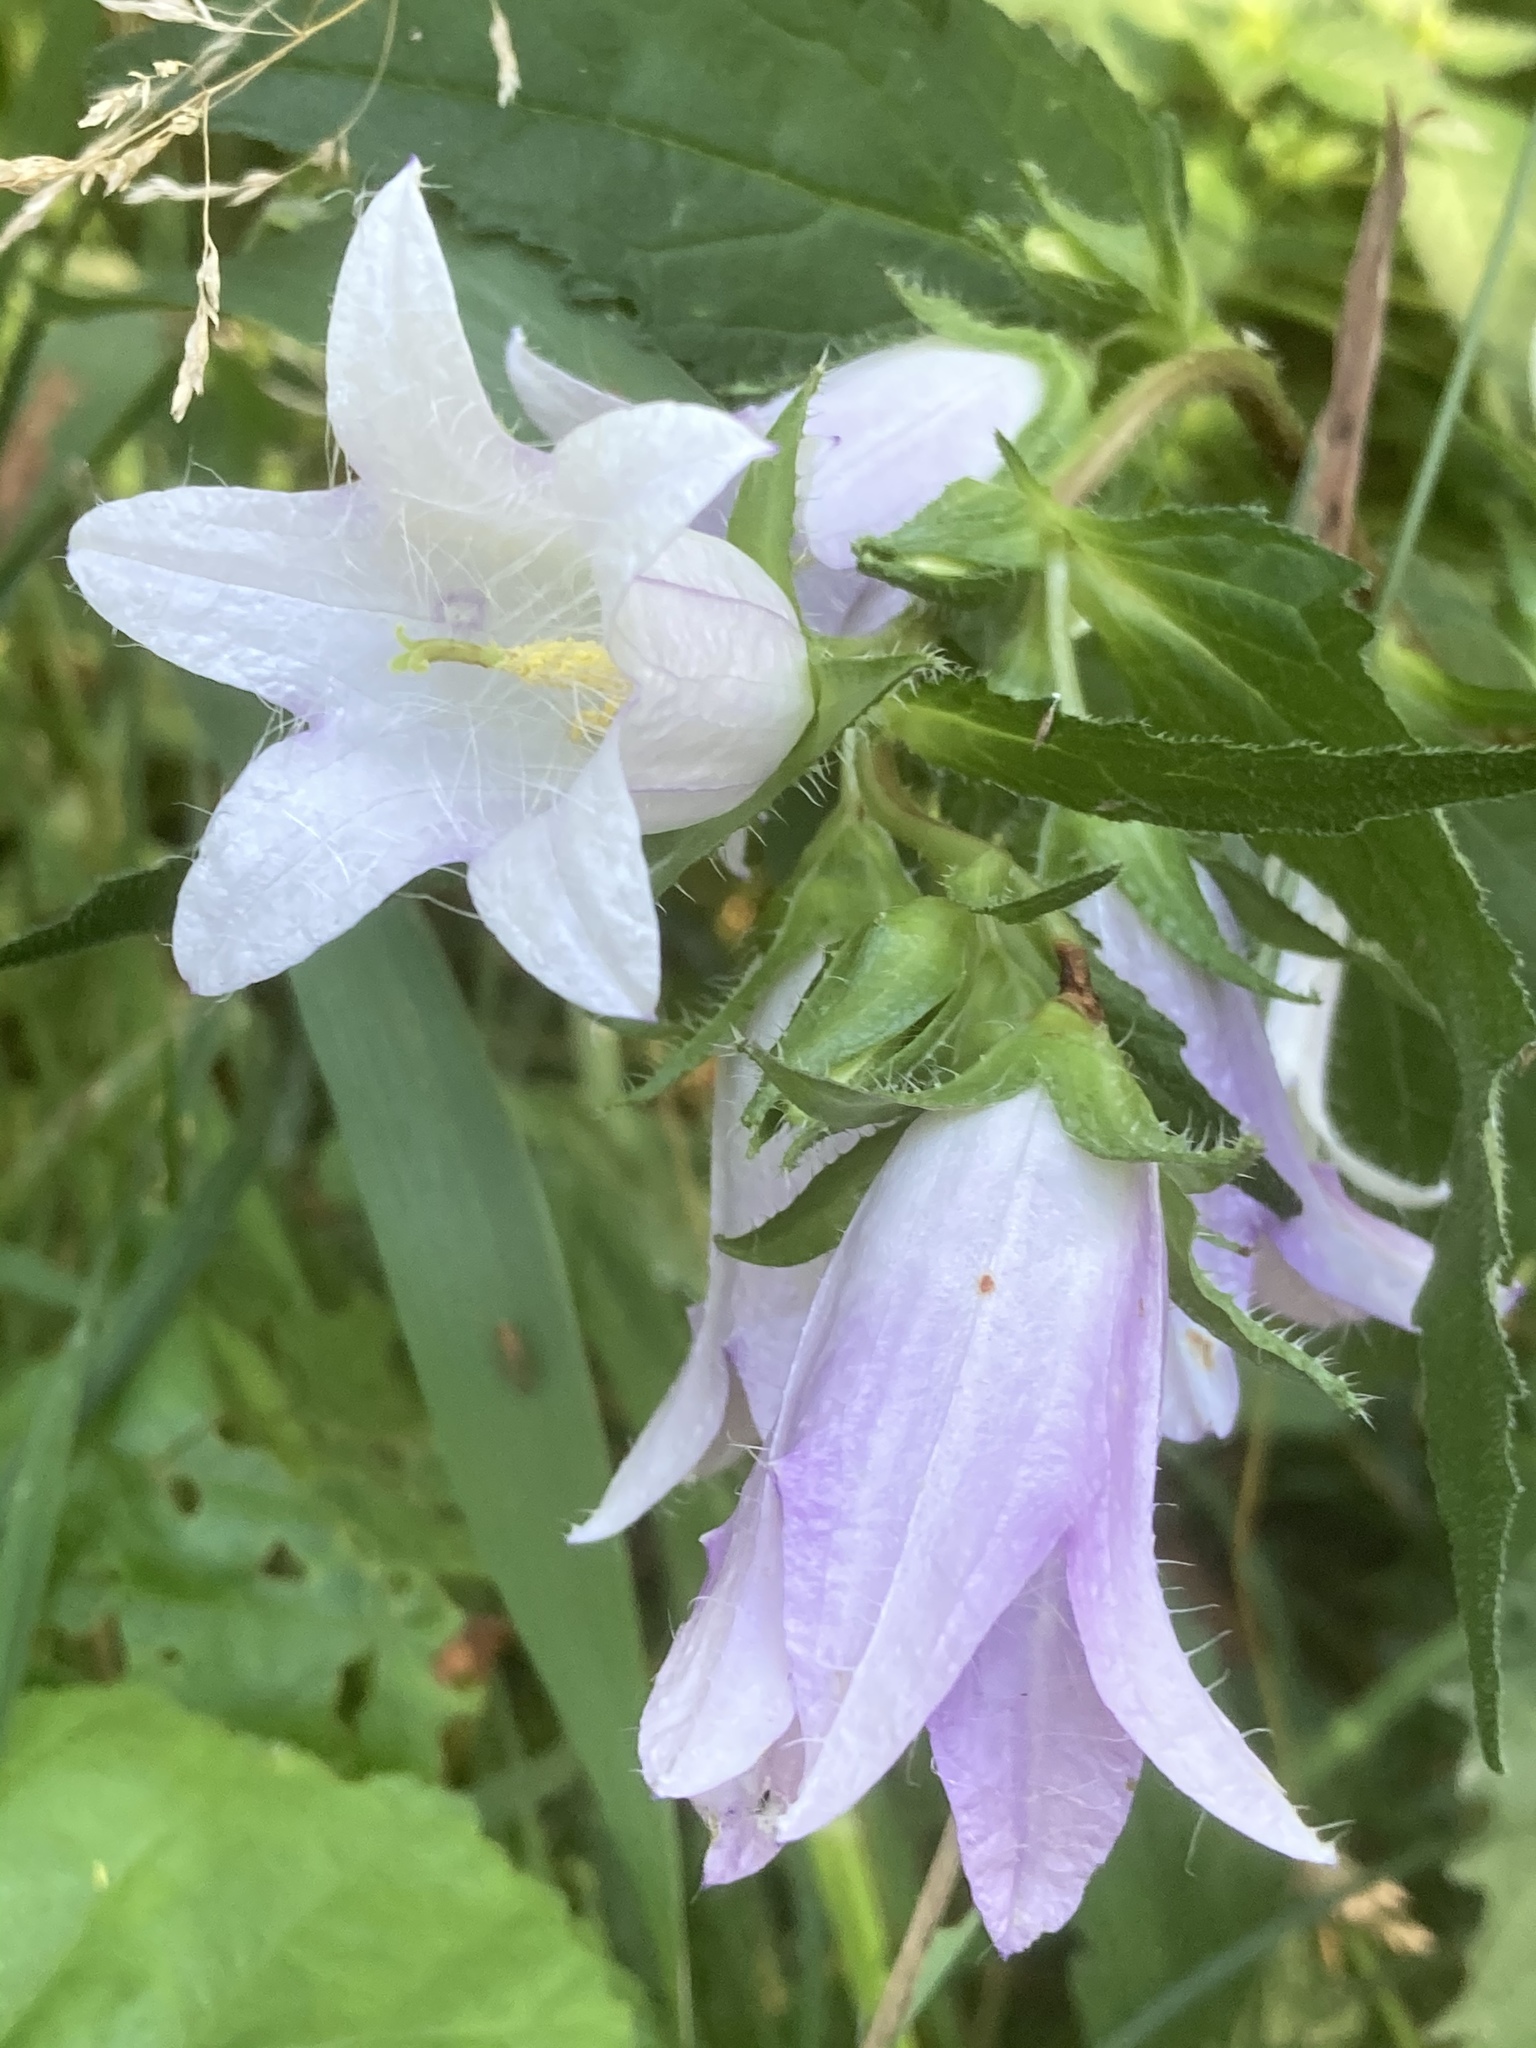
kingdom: Plantae
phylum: Tracheophyta
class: Magnoliopsida
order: Asterales
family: Campanulaceae
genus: Campanula
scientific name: Campanula trachelium
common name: Nettle-leaved bellflower
